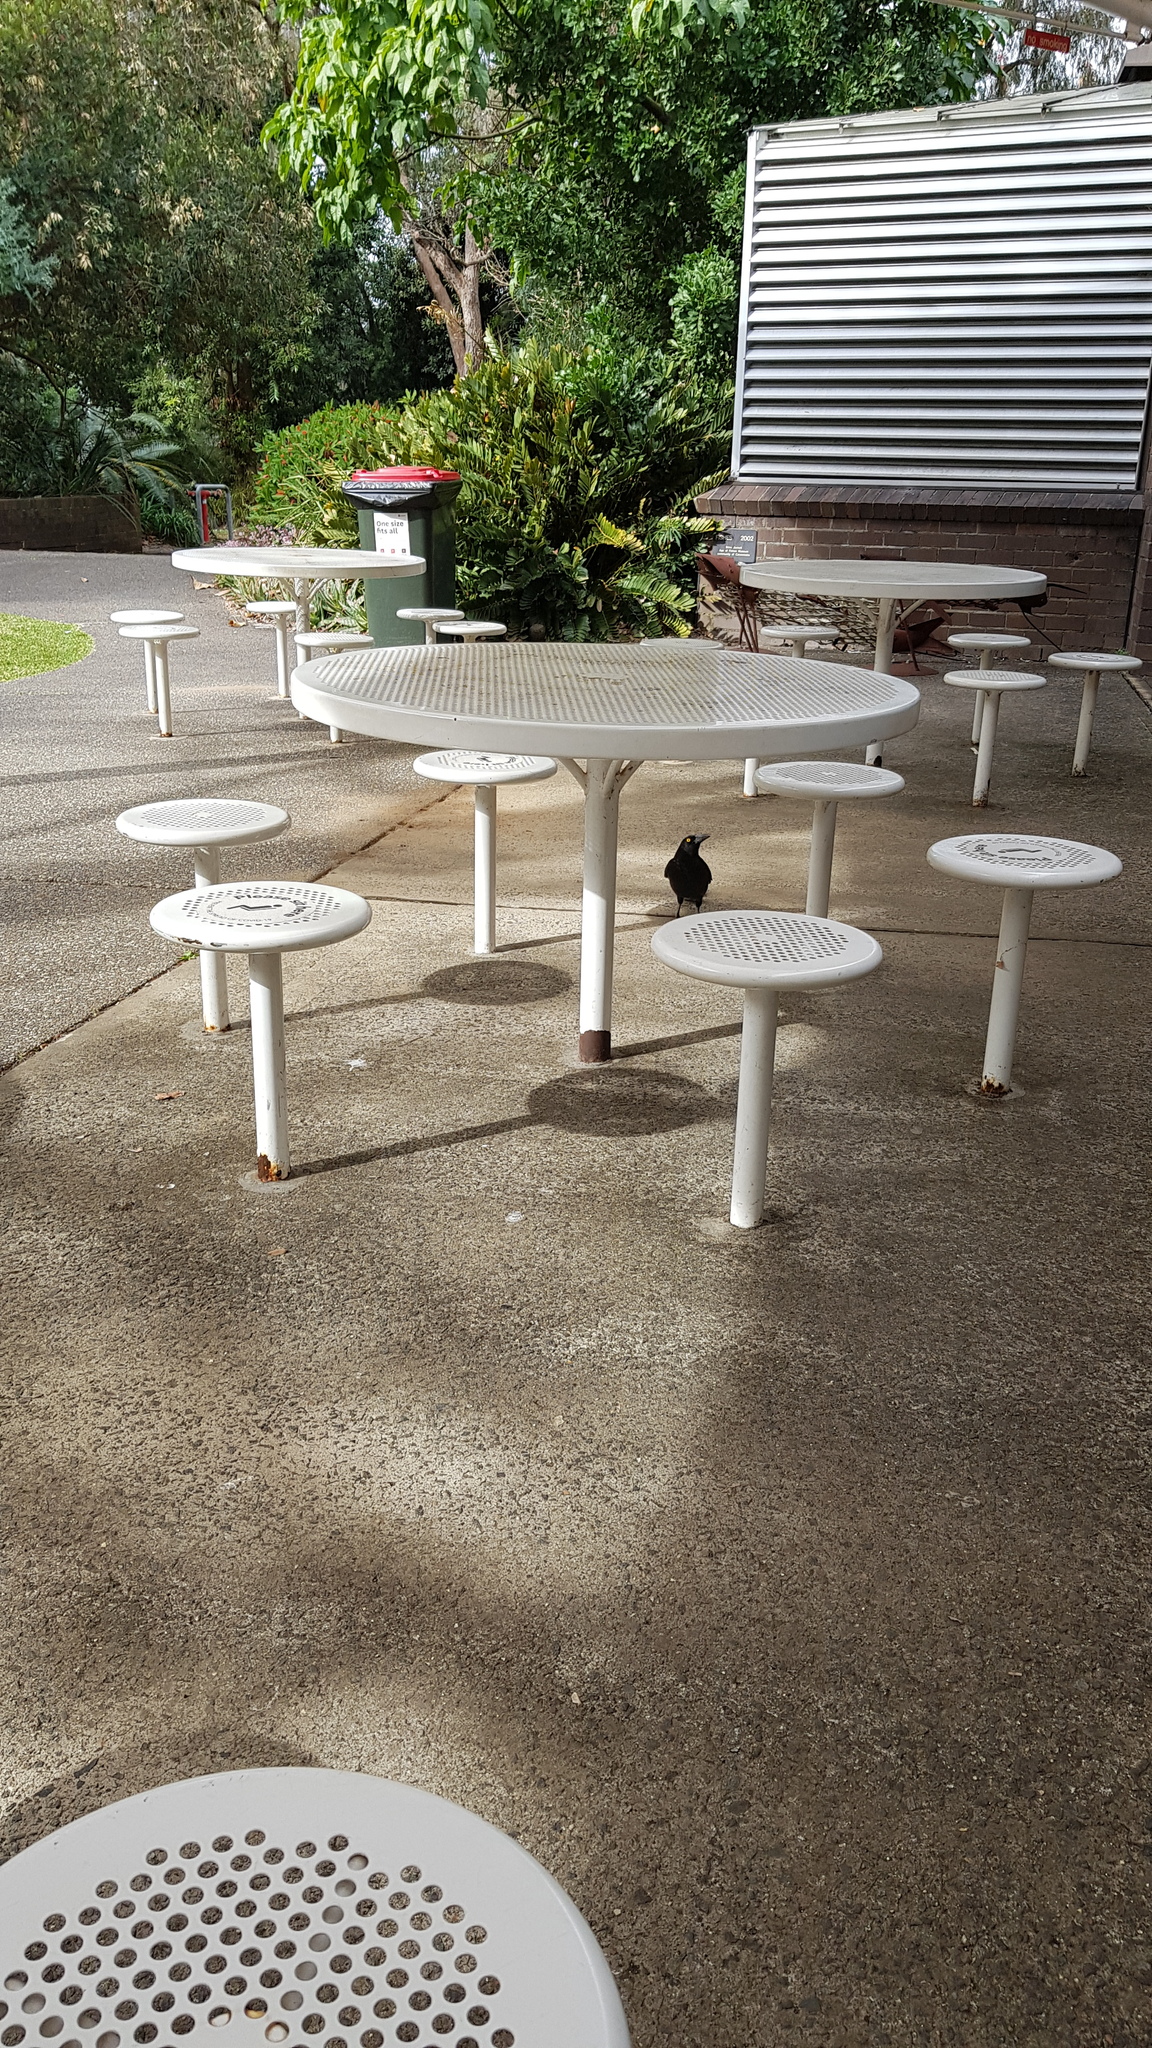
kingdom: Animalia
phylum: Chordata
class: Aves
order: Passeriformes
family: Cracticidae
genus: Strepera
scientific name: Strepera graculina
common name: Pied currawong
